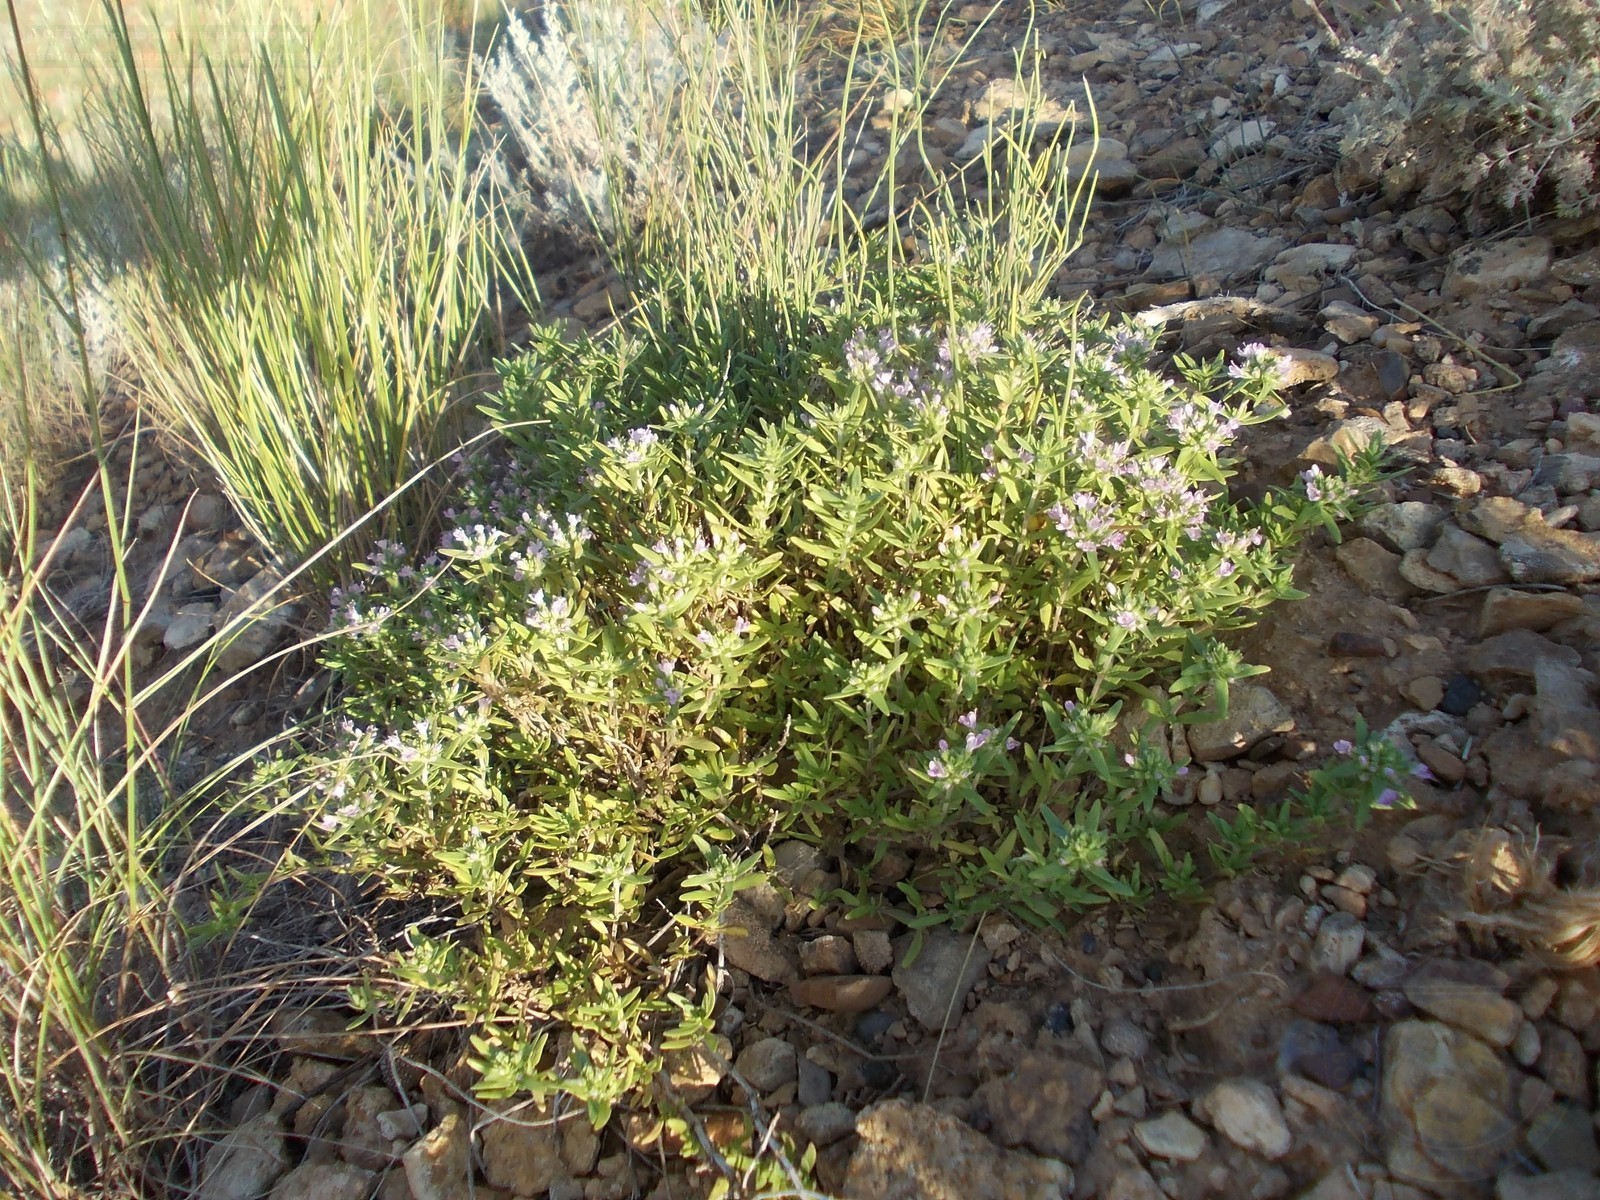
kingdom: Plantae
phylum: Tracheophyta
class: Magnoliopsida
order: Lamiales
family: Lamiaceae
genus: Thymus
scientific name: Thymus kirgisorum
